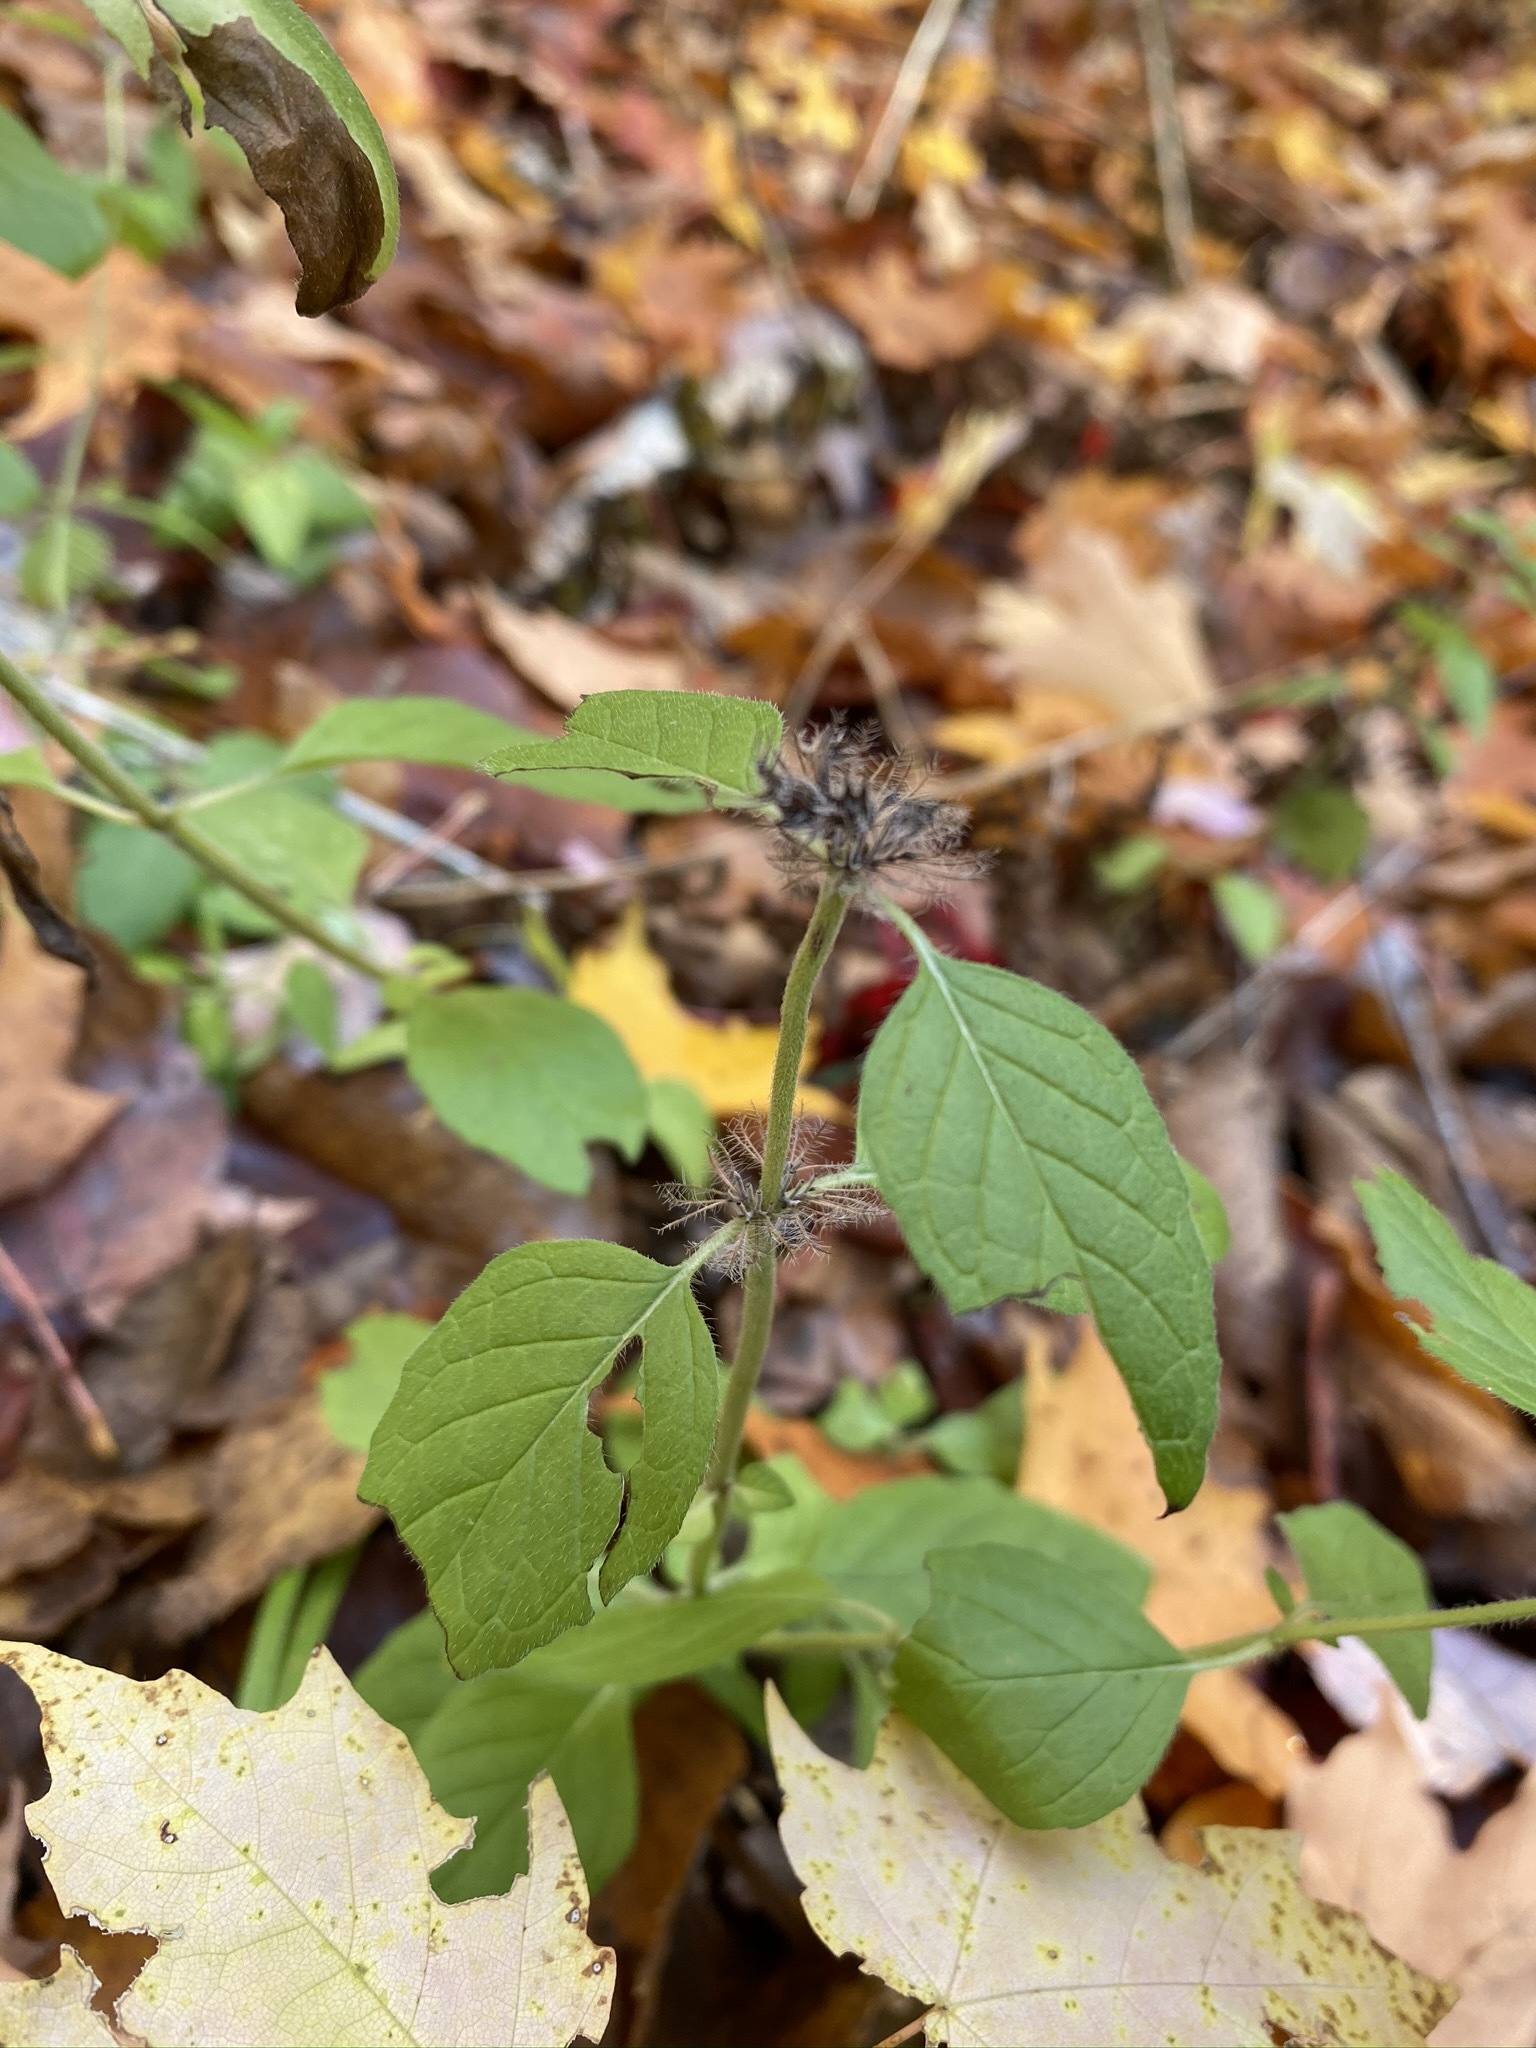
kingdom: Plantae
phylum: Tracheophyta
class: Magnoliopsida
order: Lamiales
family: Lamiaceae
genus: Clinopodium
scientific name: Clinopodium vulgare
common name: Wild basil
